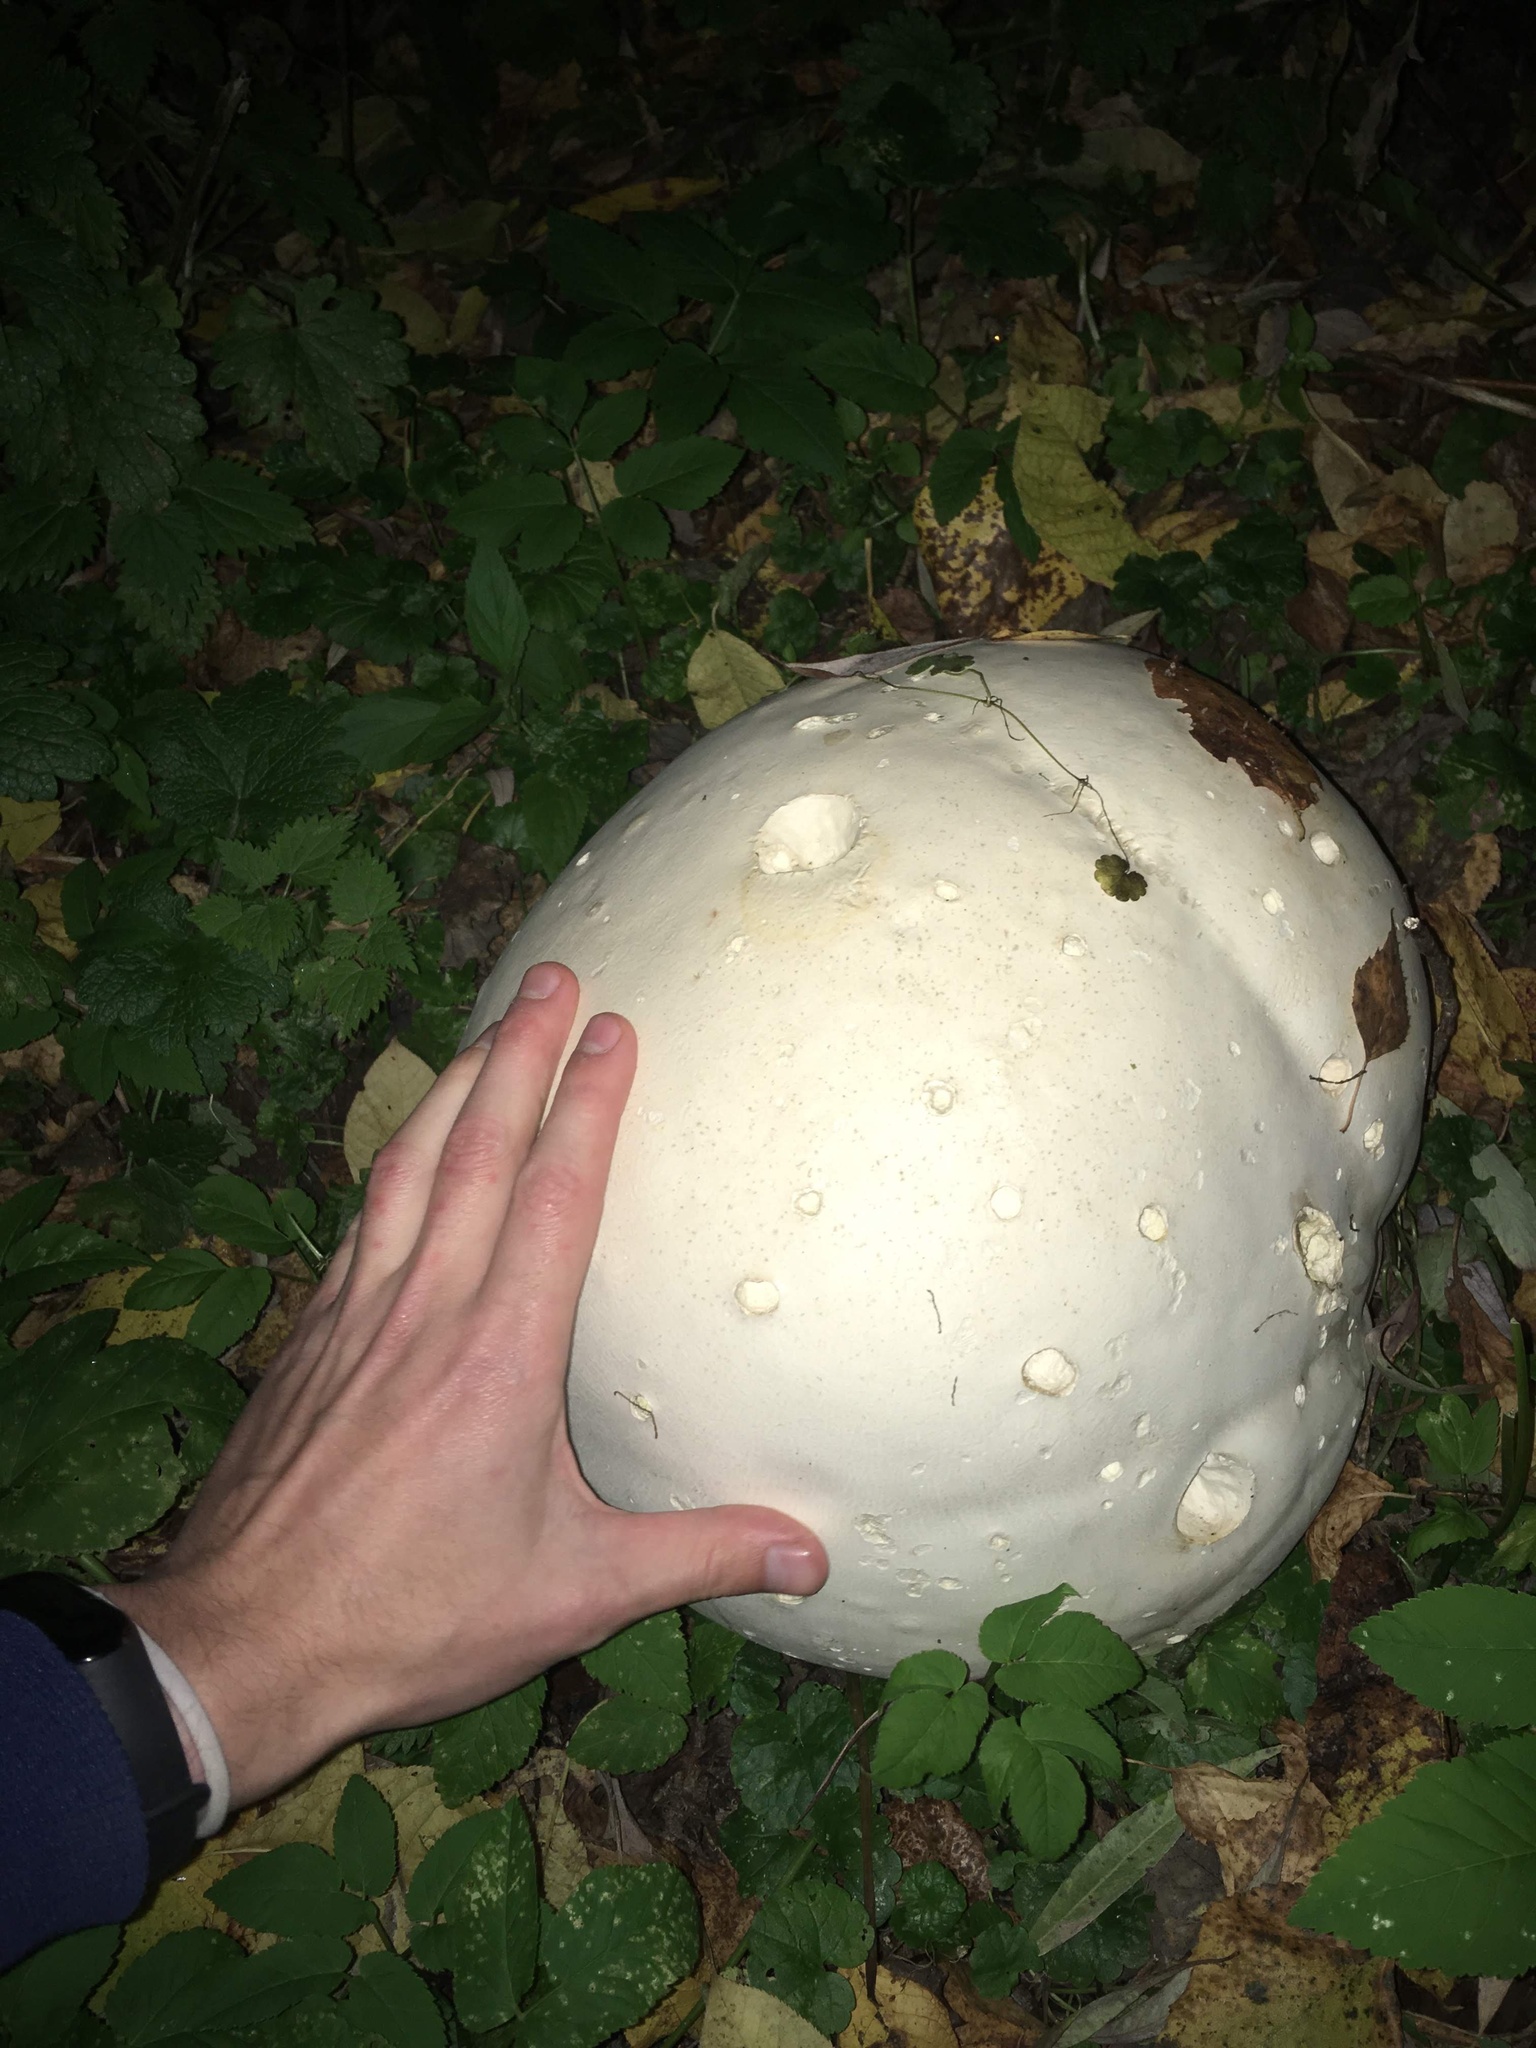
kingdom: Fungi
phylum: Basidiomycota
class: Agaricomycetes
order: Agaricales
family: Lycoperdaceae
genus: Calvatia
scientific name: Calvatia gigantea
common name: Giant puffball
